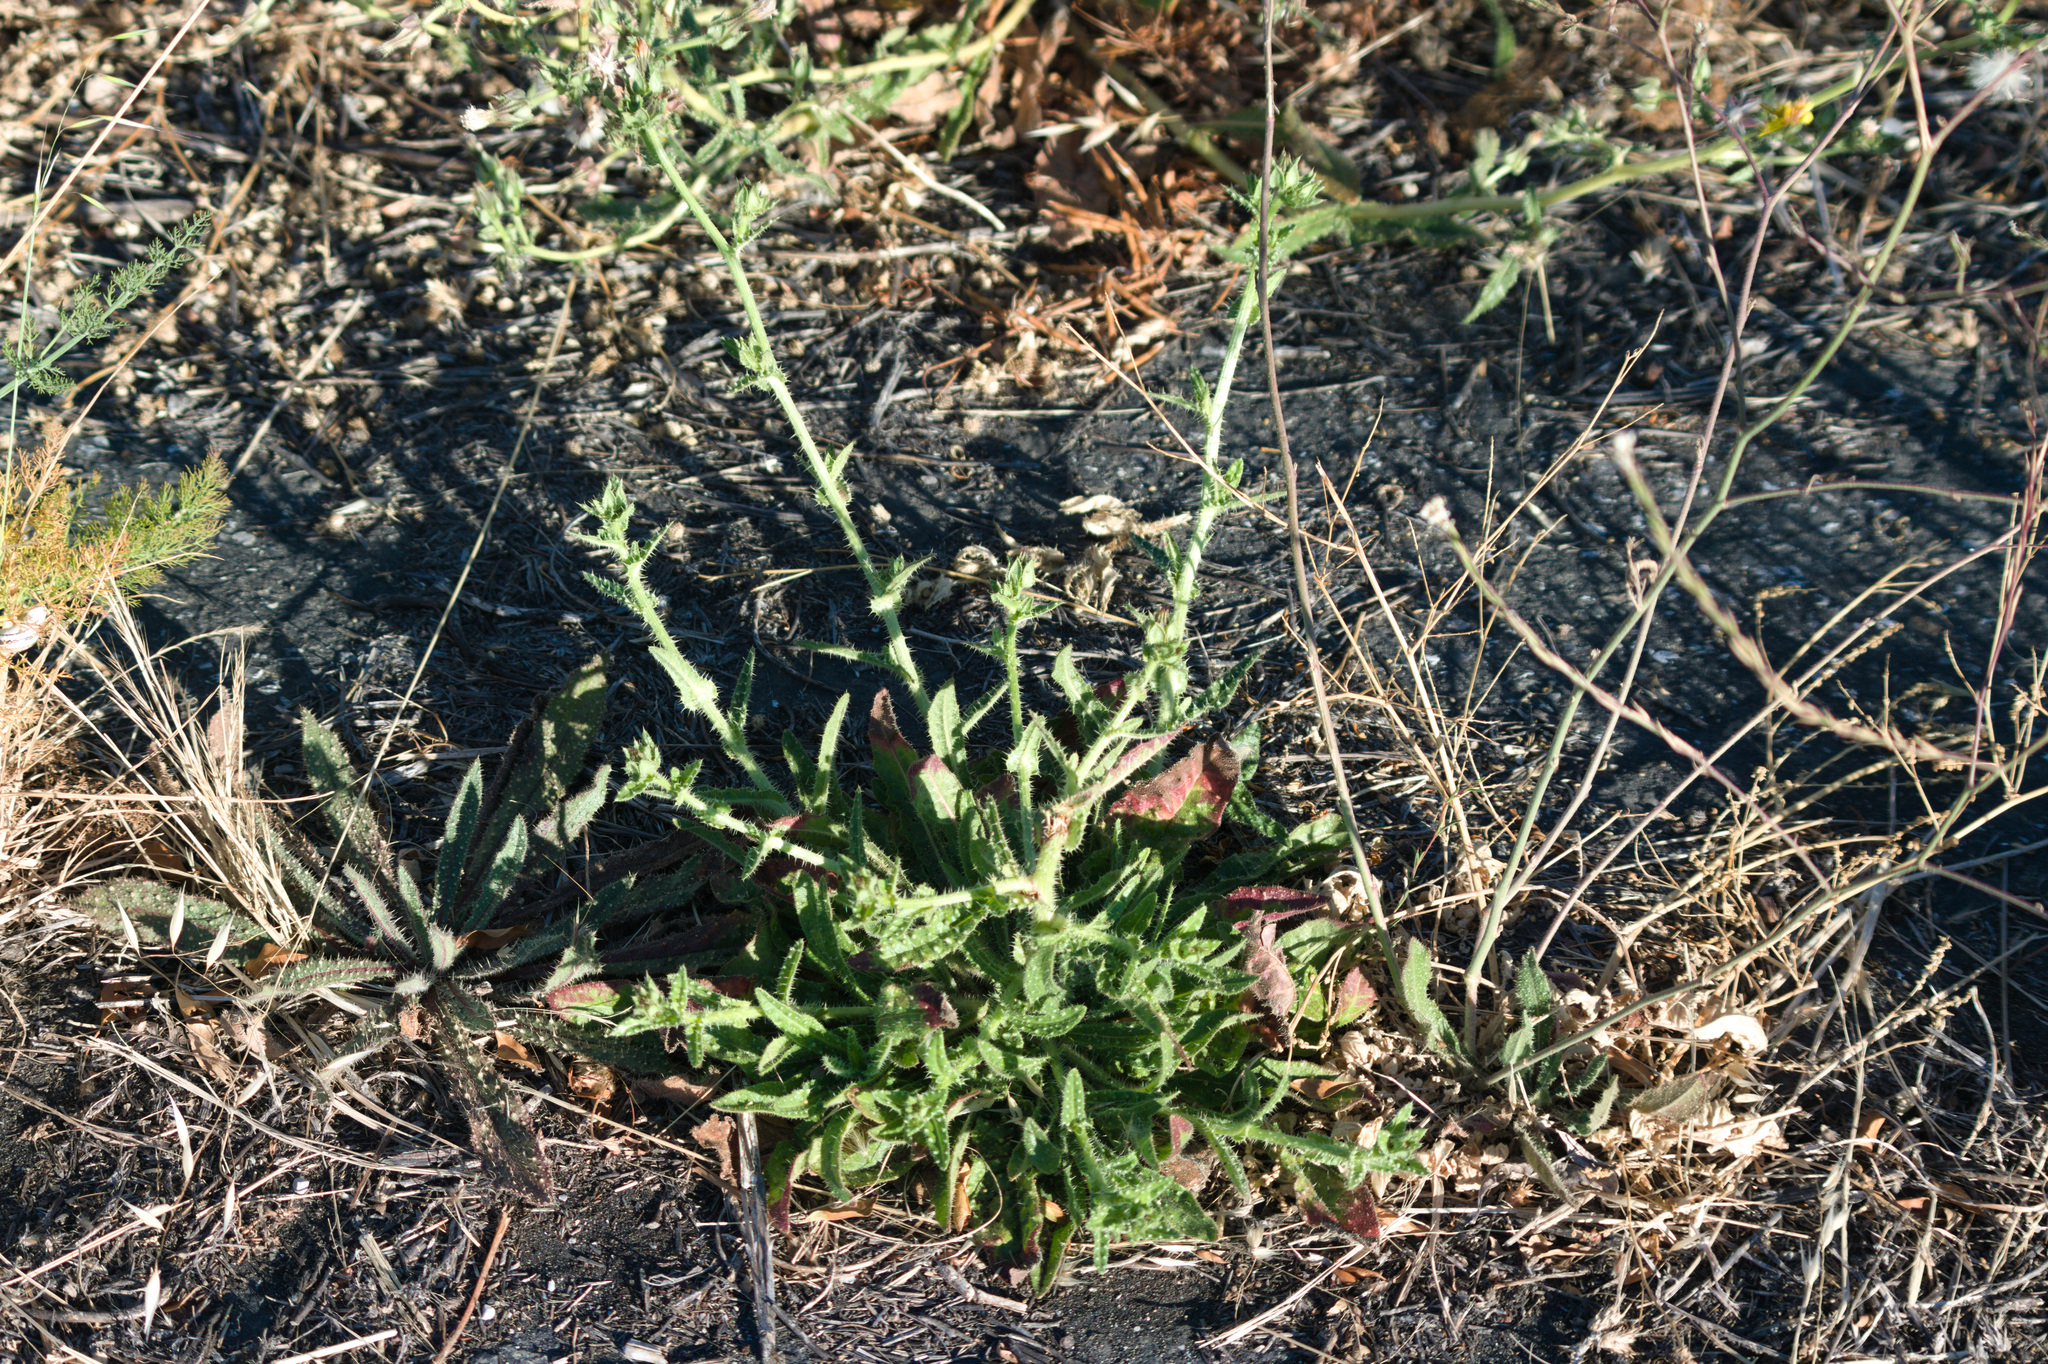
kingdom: Plantae
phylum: Tracheophyta
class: Magnoliopsida
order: Asterales
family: Asteraceae
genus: Helminthotheca
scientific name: Helminthotheca echioides
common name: Ox-tongue
